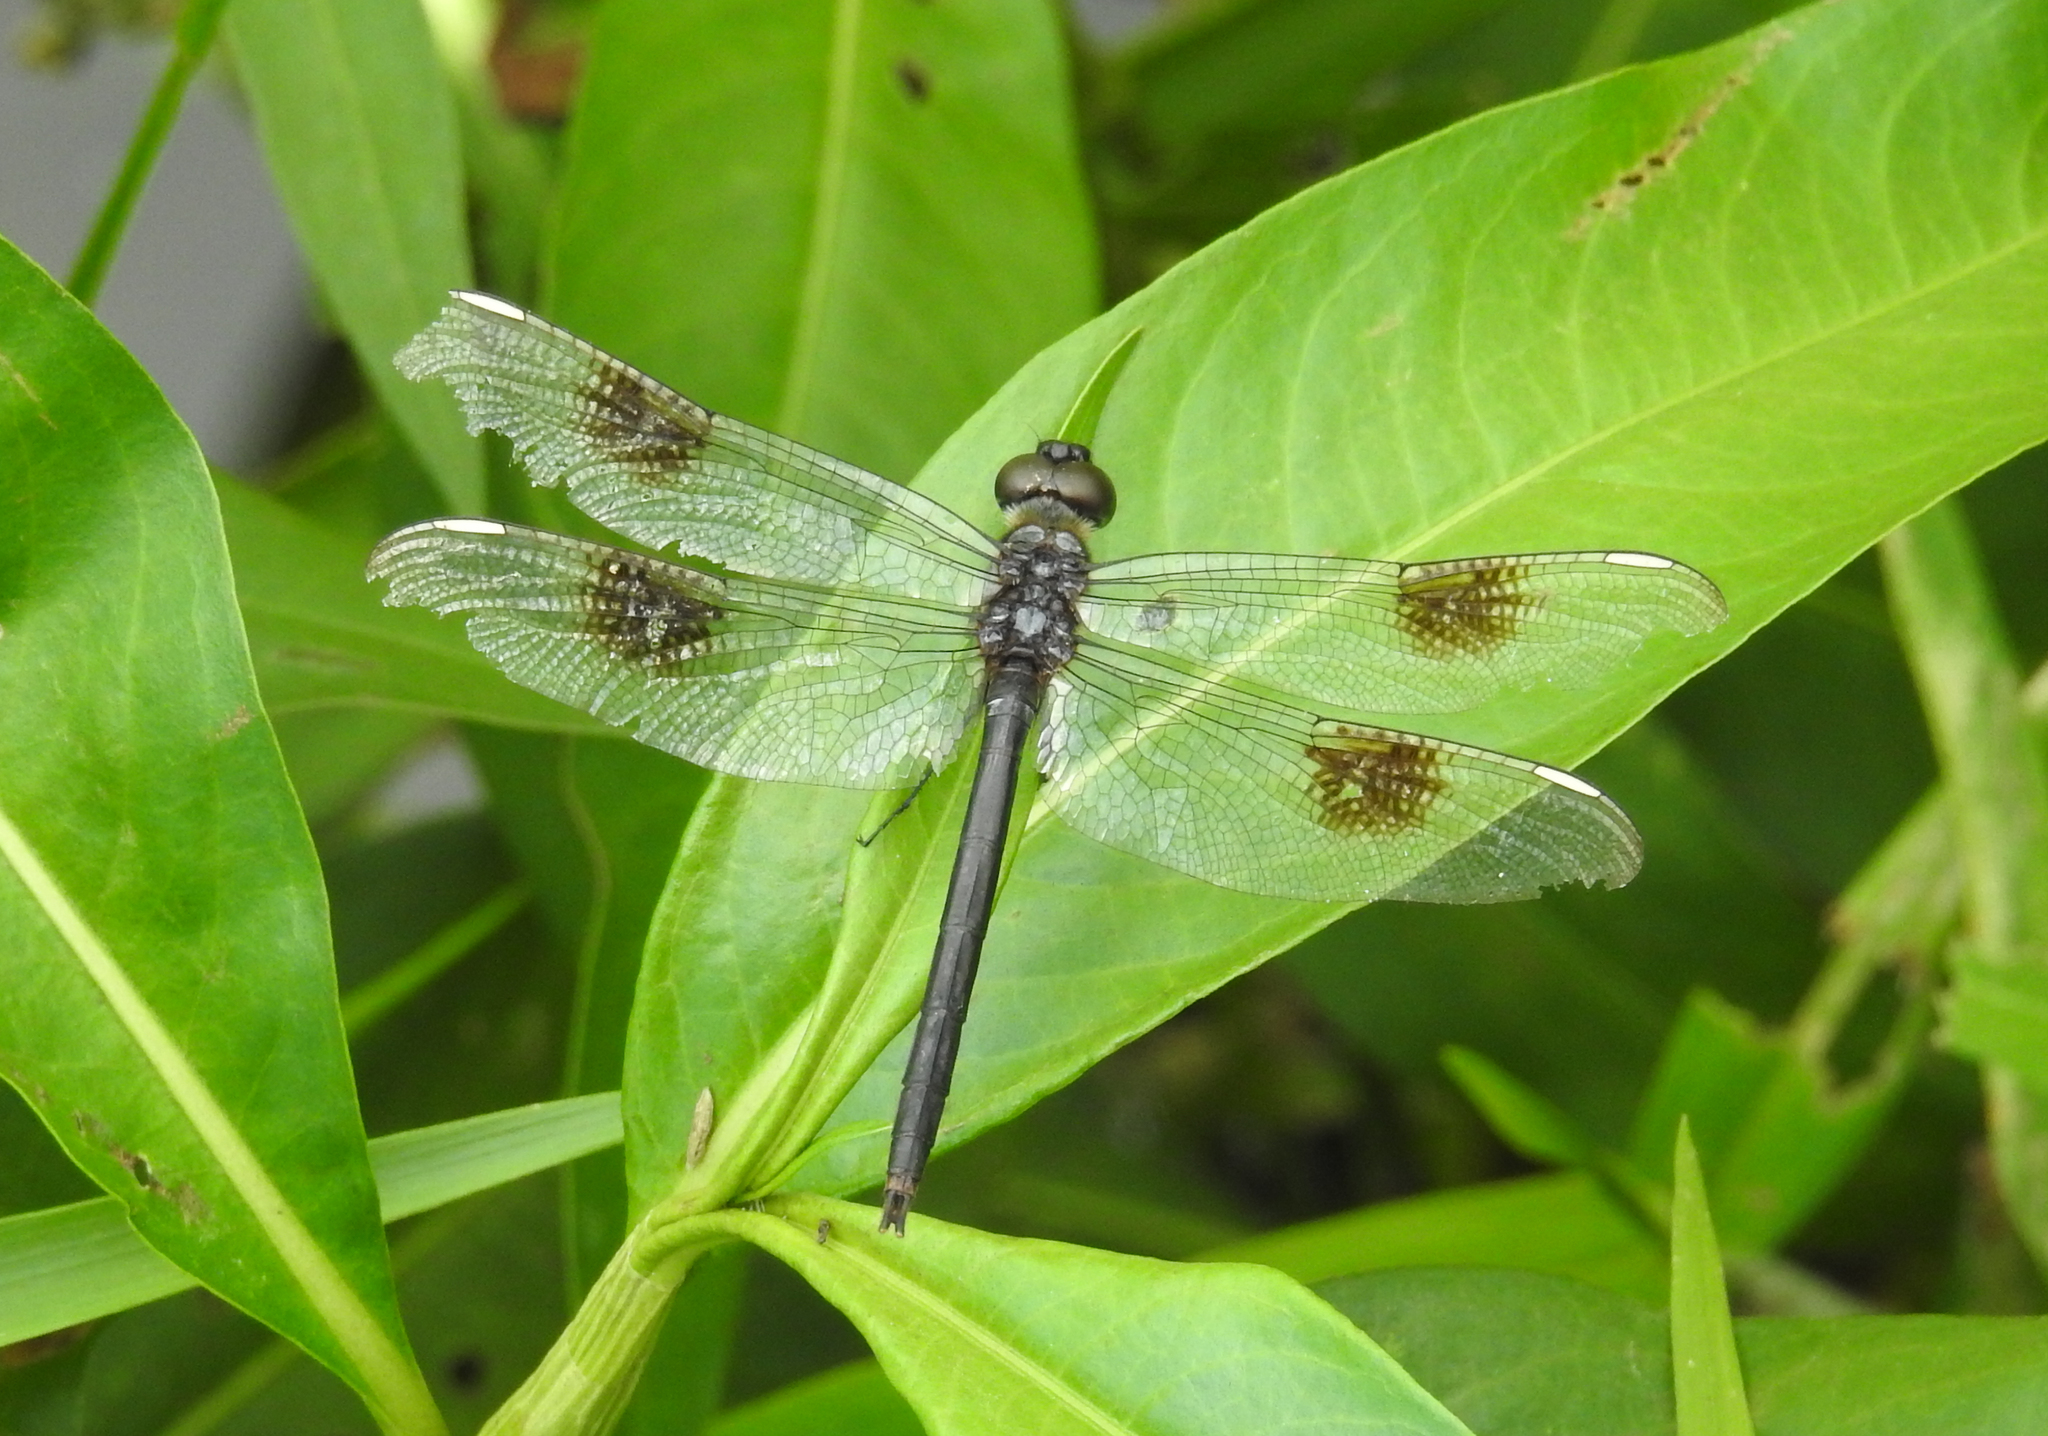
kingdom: Animalia
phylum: Arthropoda
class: Insecta
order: Odonata
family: Libellulidae
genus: Brachymesia
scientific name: Brachymesia gravida
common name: Four-spotted pennant
